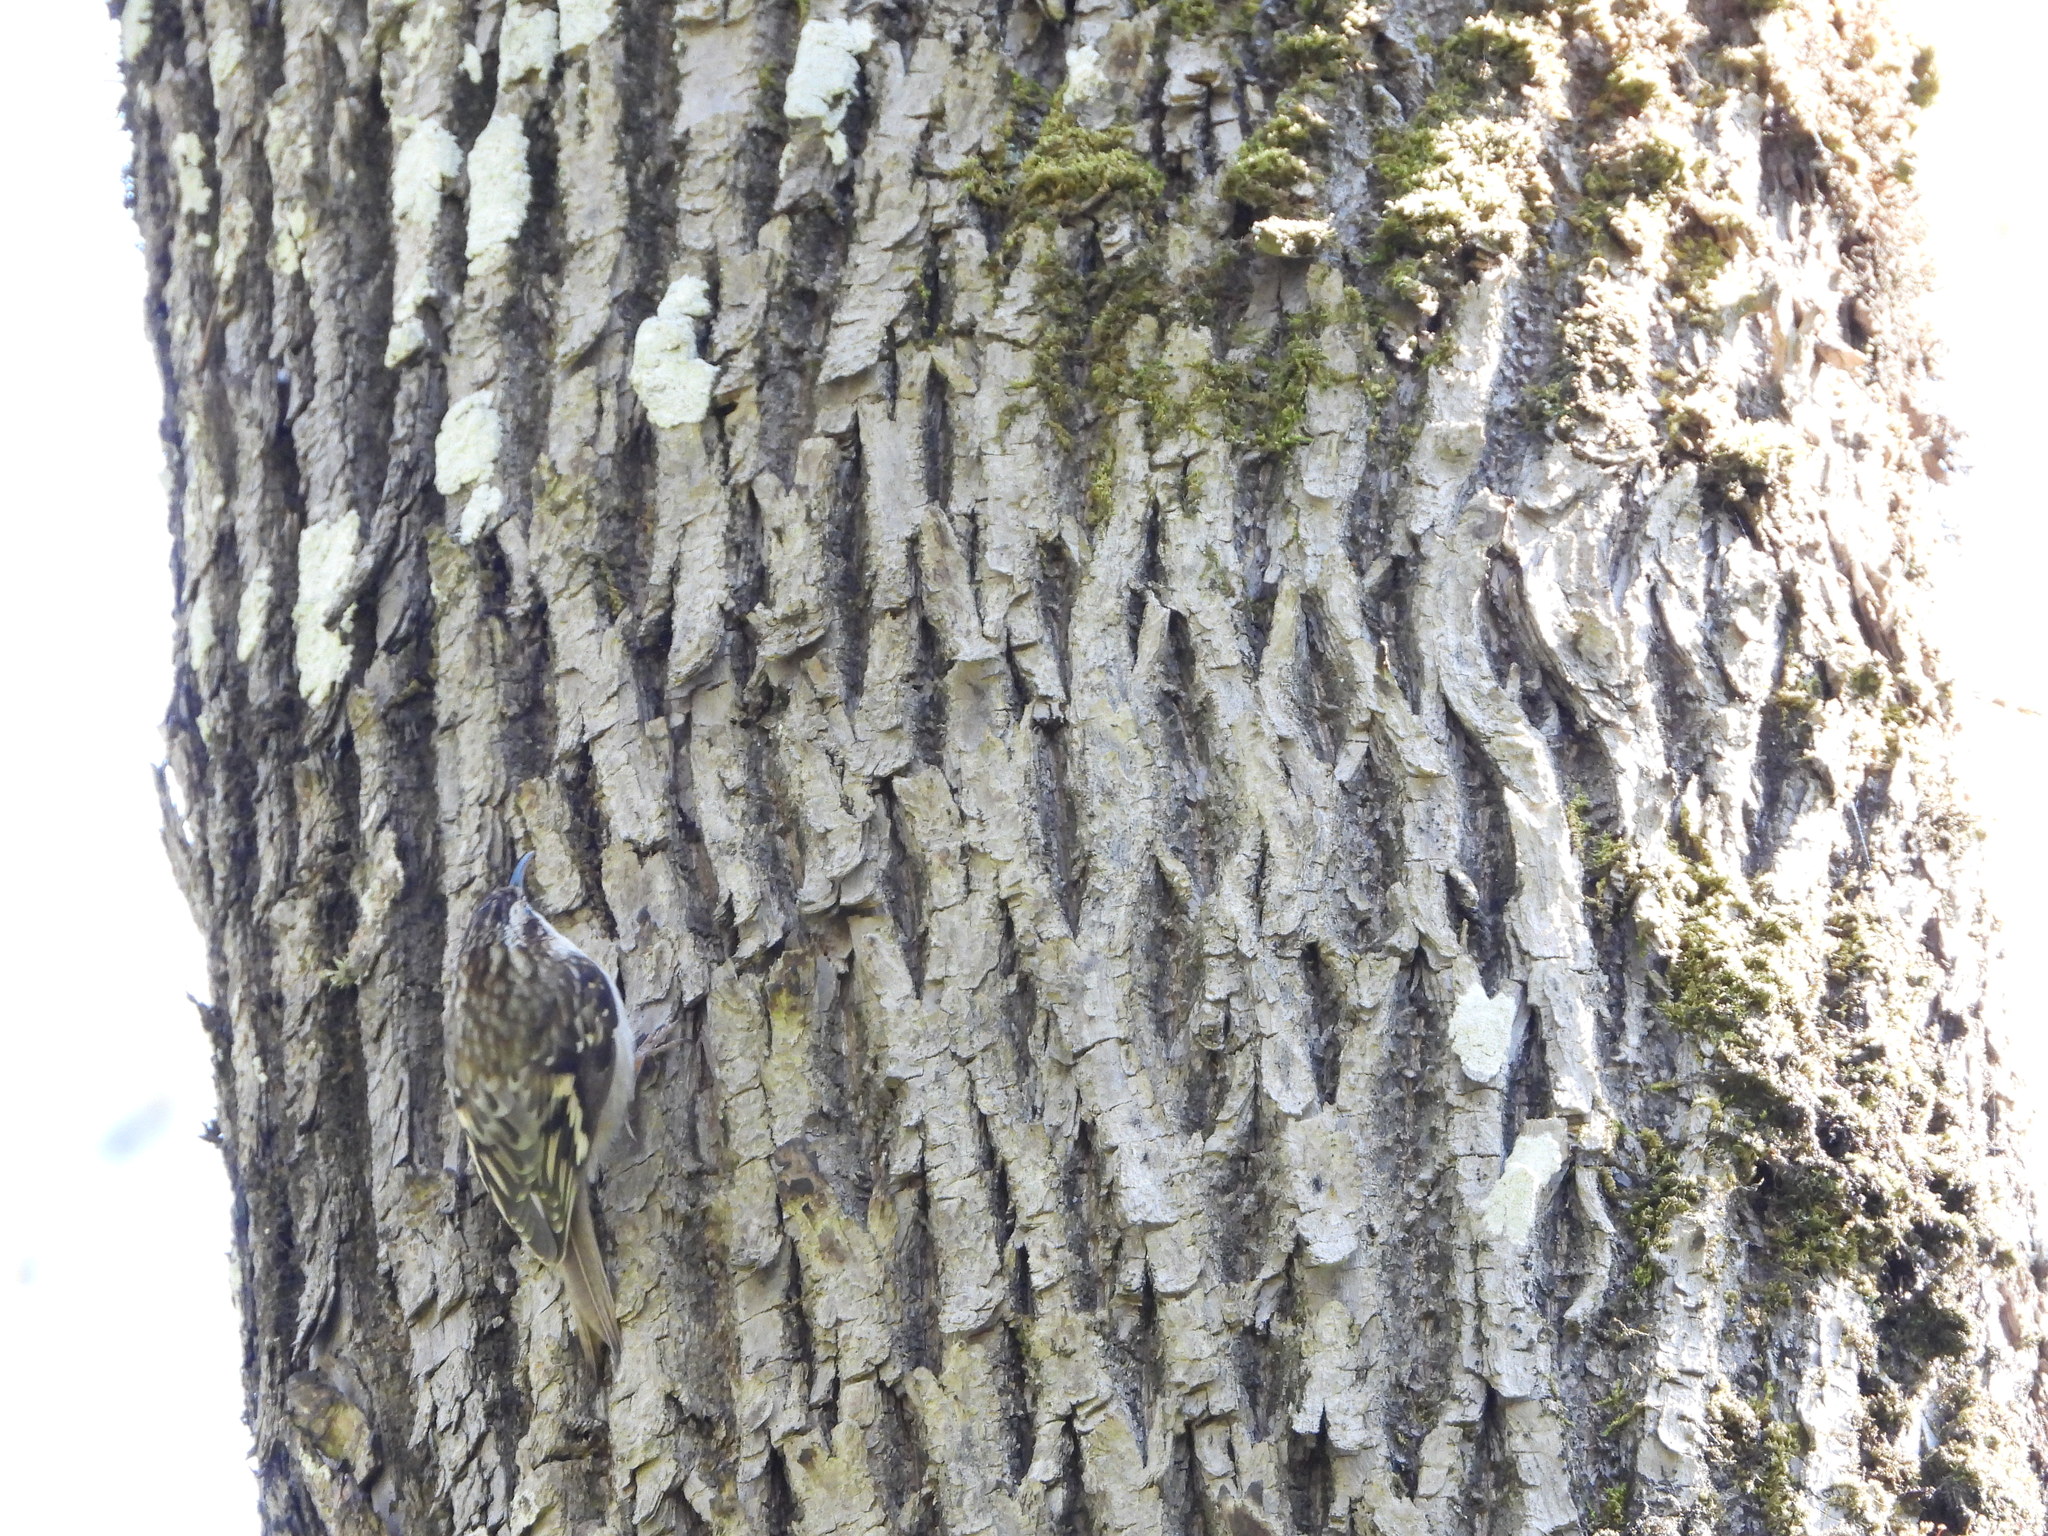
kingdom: Animalia
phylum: Chordata
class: Aves
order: Passeriformes
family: Certhiidae
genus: Certhia
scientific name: Certhia americana
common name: Brown creeper
